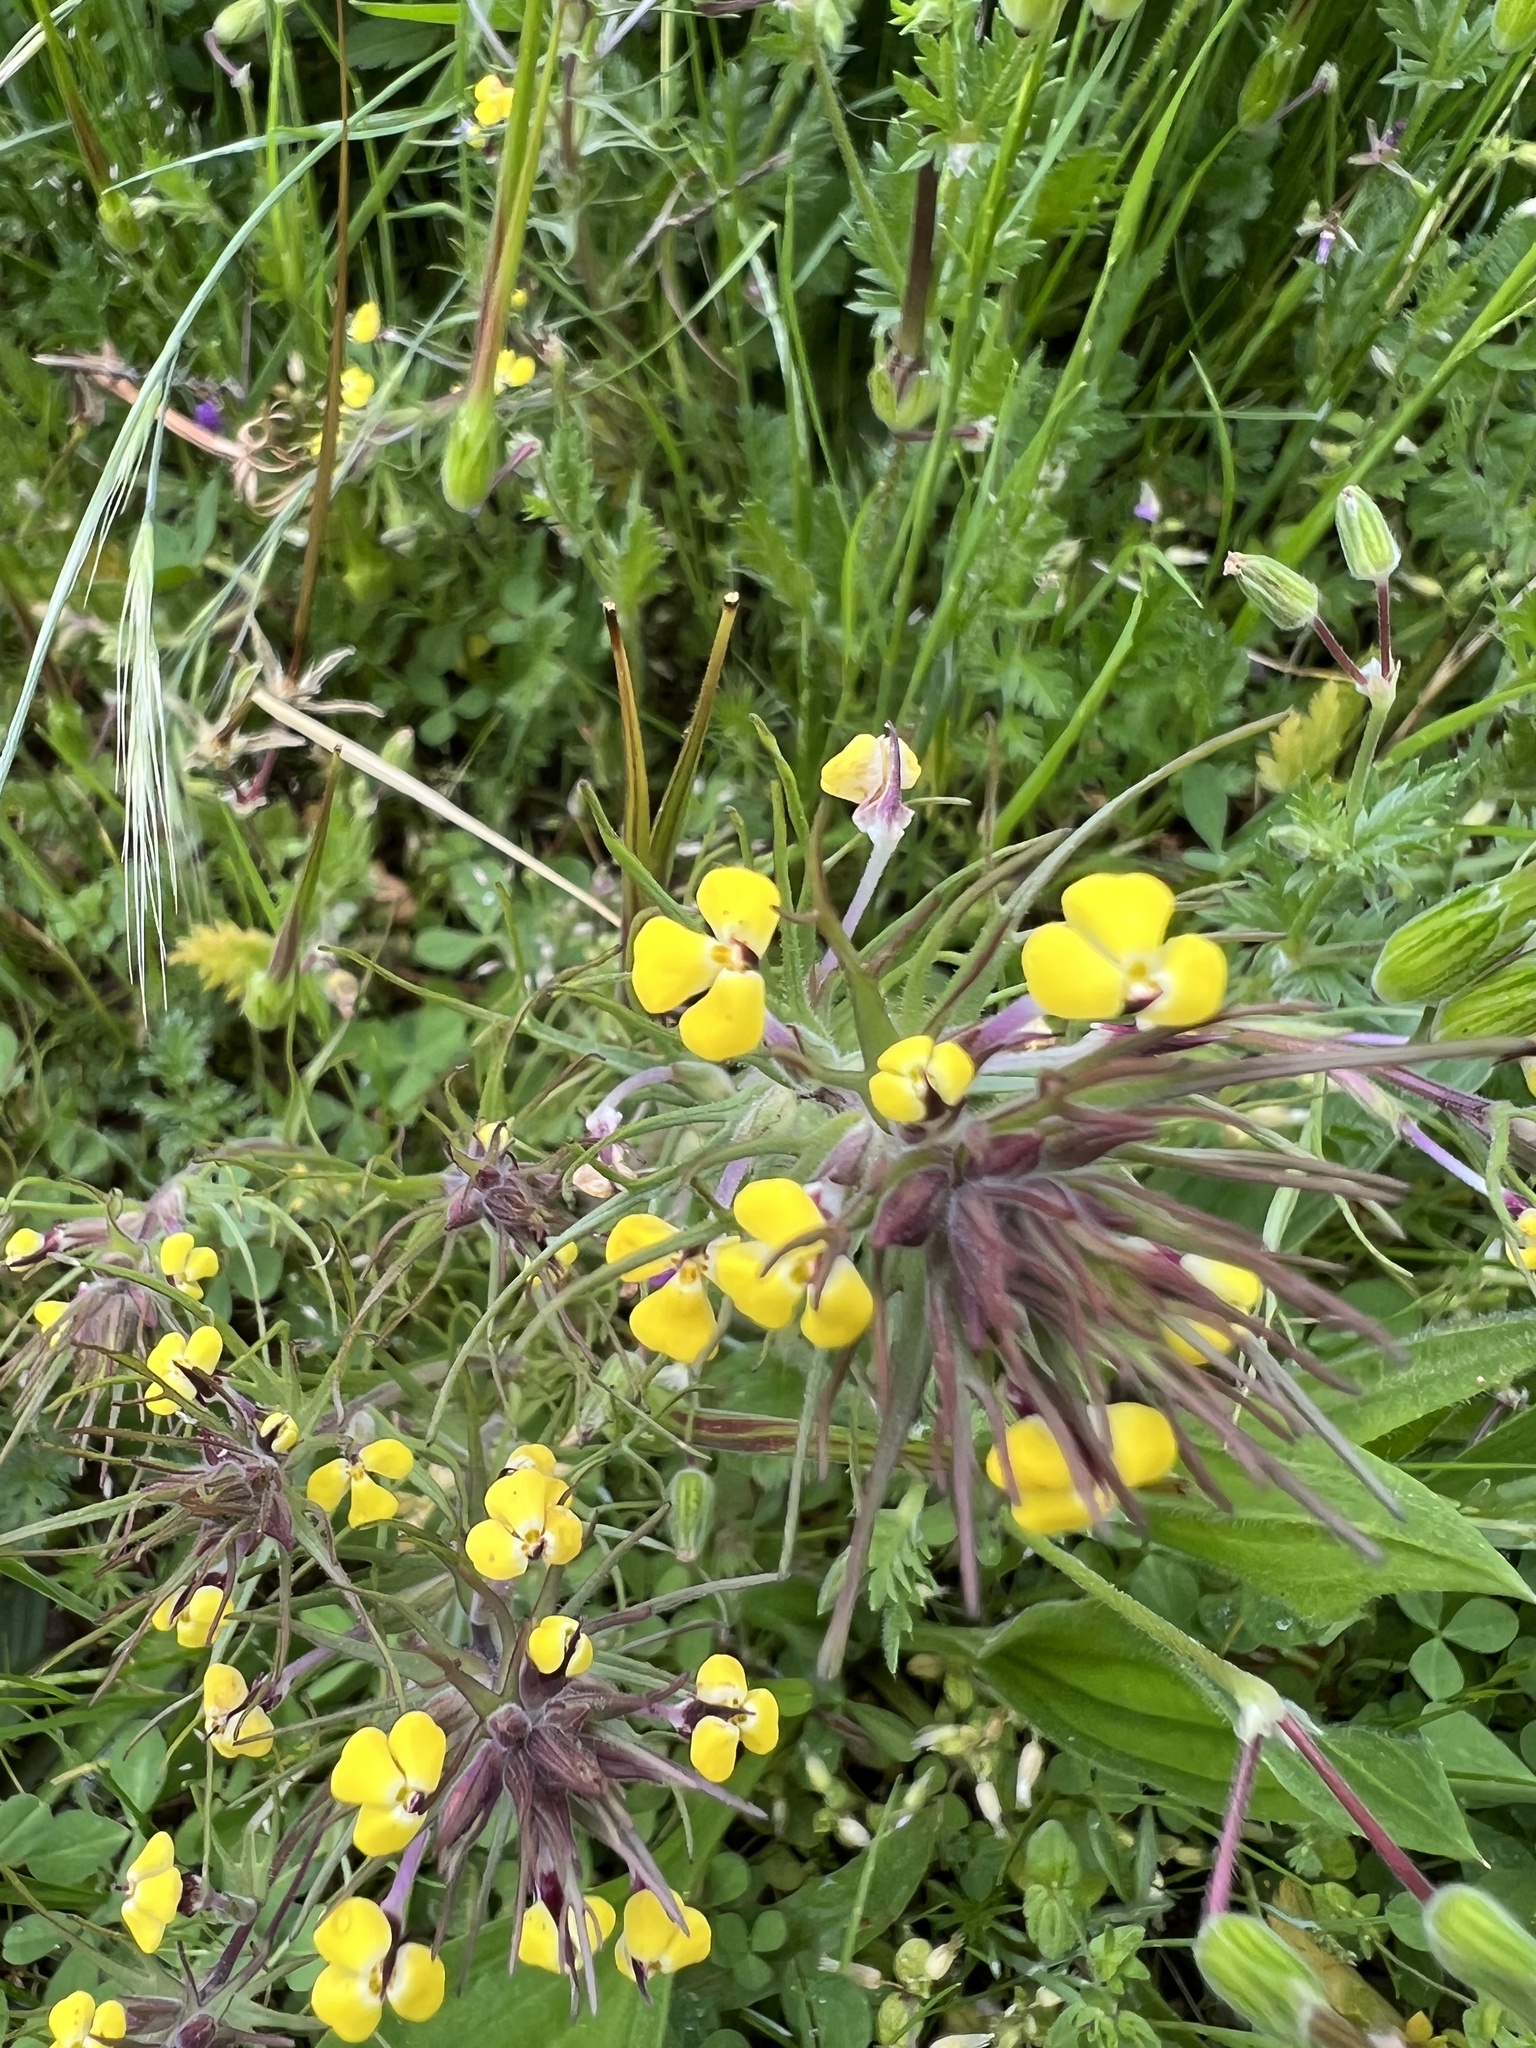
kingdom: Plantae
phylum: Tracheophyta
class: Magnoliopsida
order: Lamiales
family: Orobanchaceae
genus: Triphysaria
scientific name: Triphysaria eriantha
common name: Johnny-tuck
